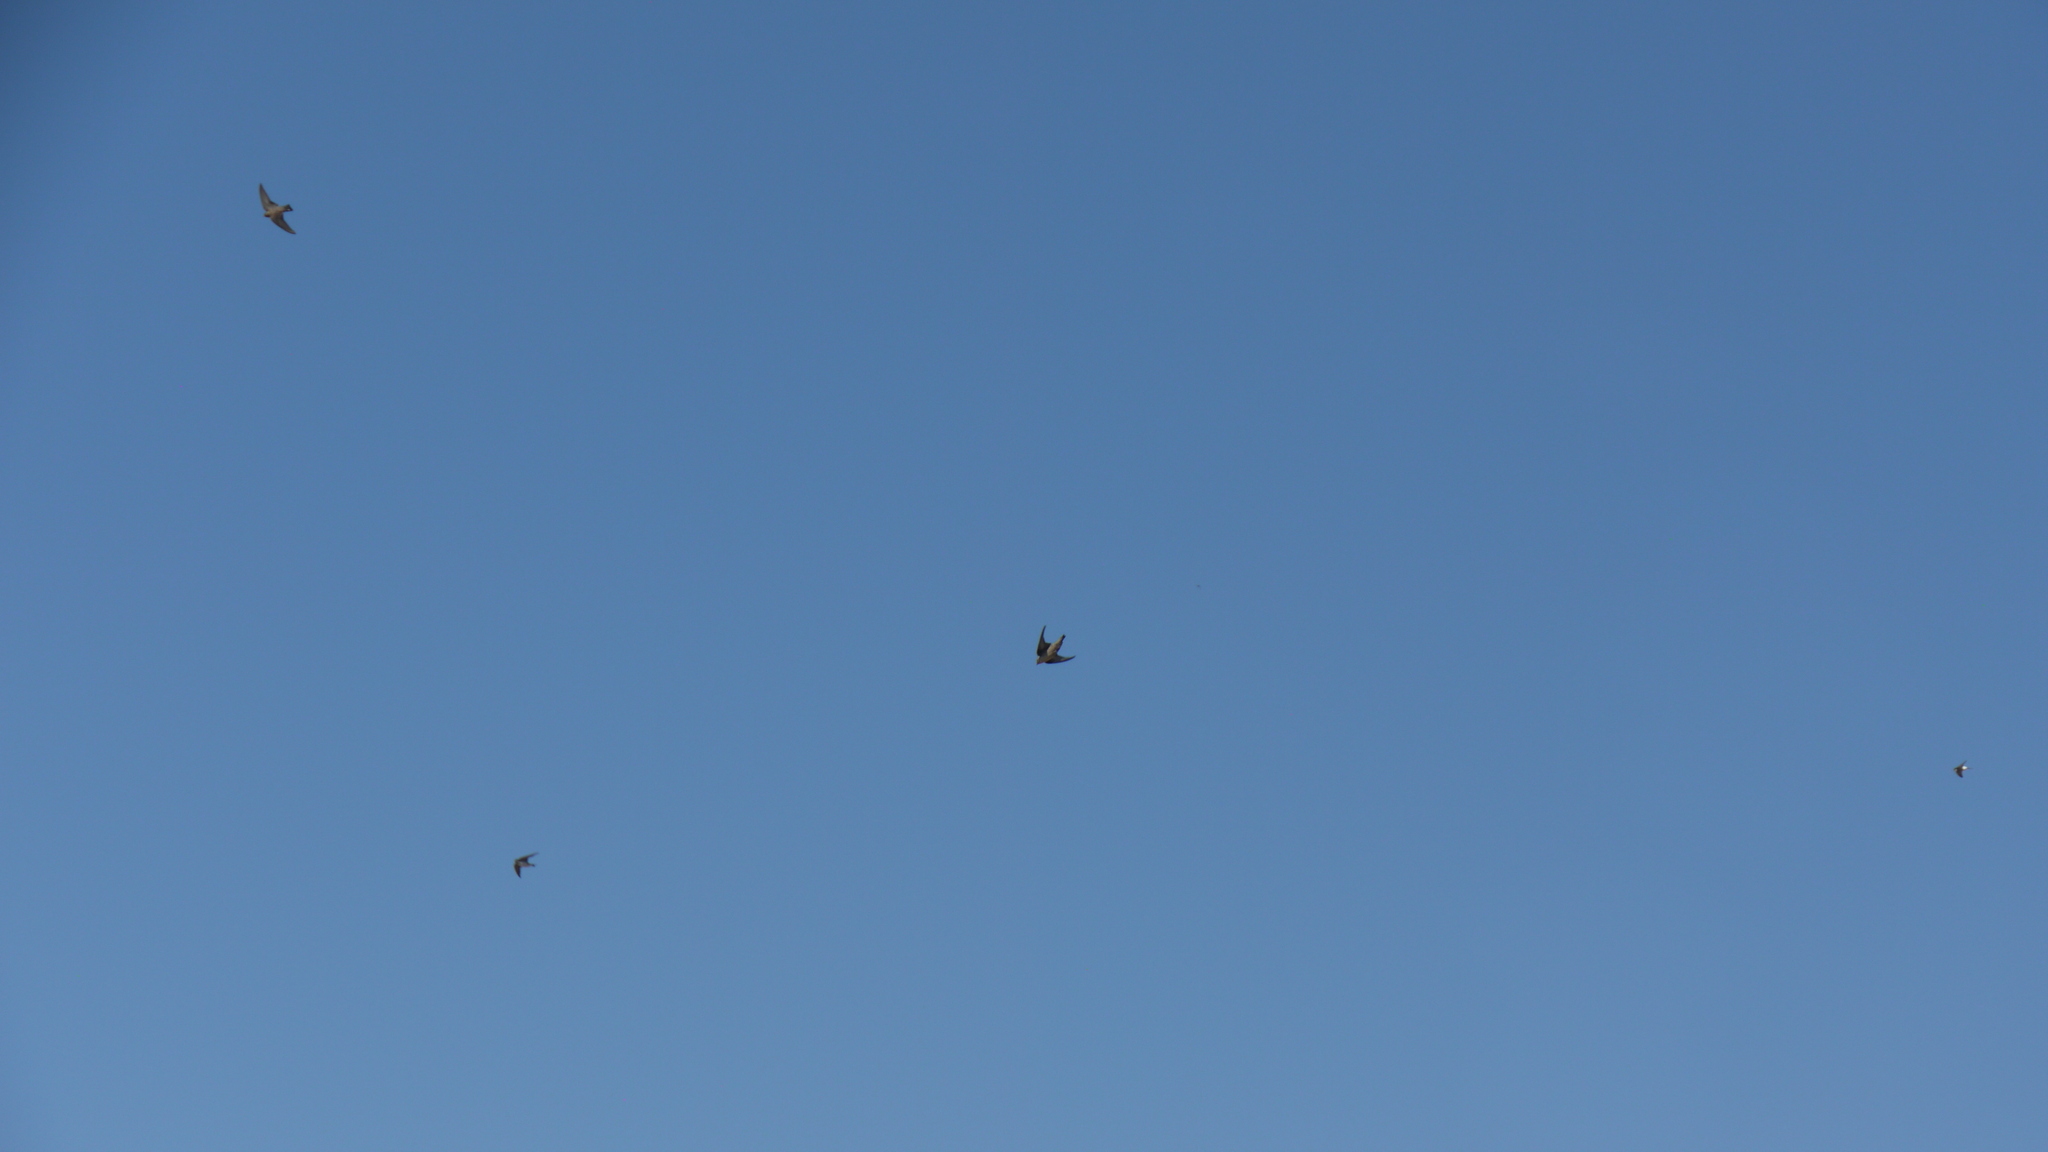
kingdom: Animalia
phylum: Chordata
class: Aves
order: Passeriformes
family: Hirundinidae
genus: Ptyonoprogne
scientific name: Ptyonoprogne rupestris
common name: Eurasian crag martin
